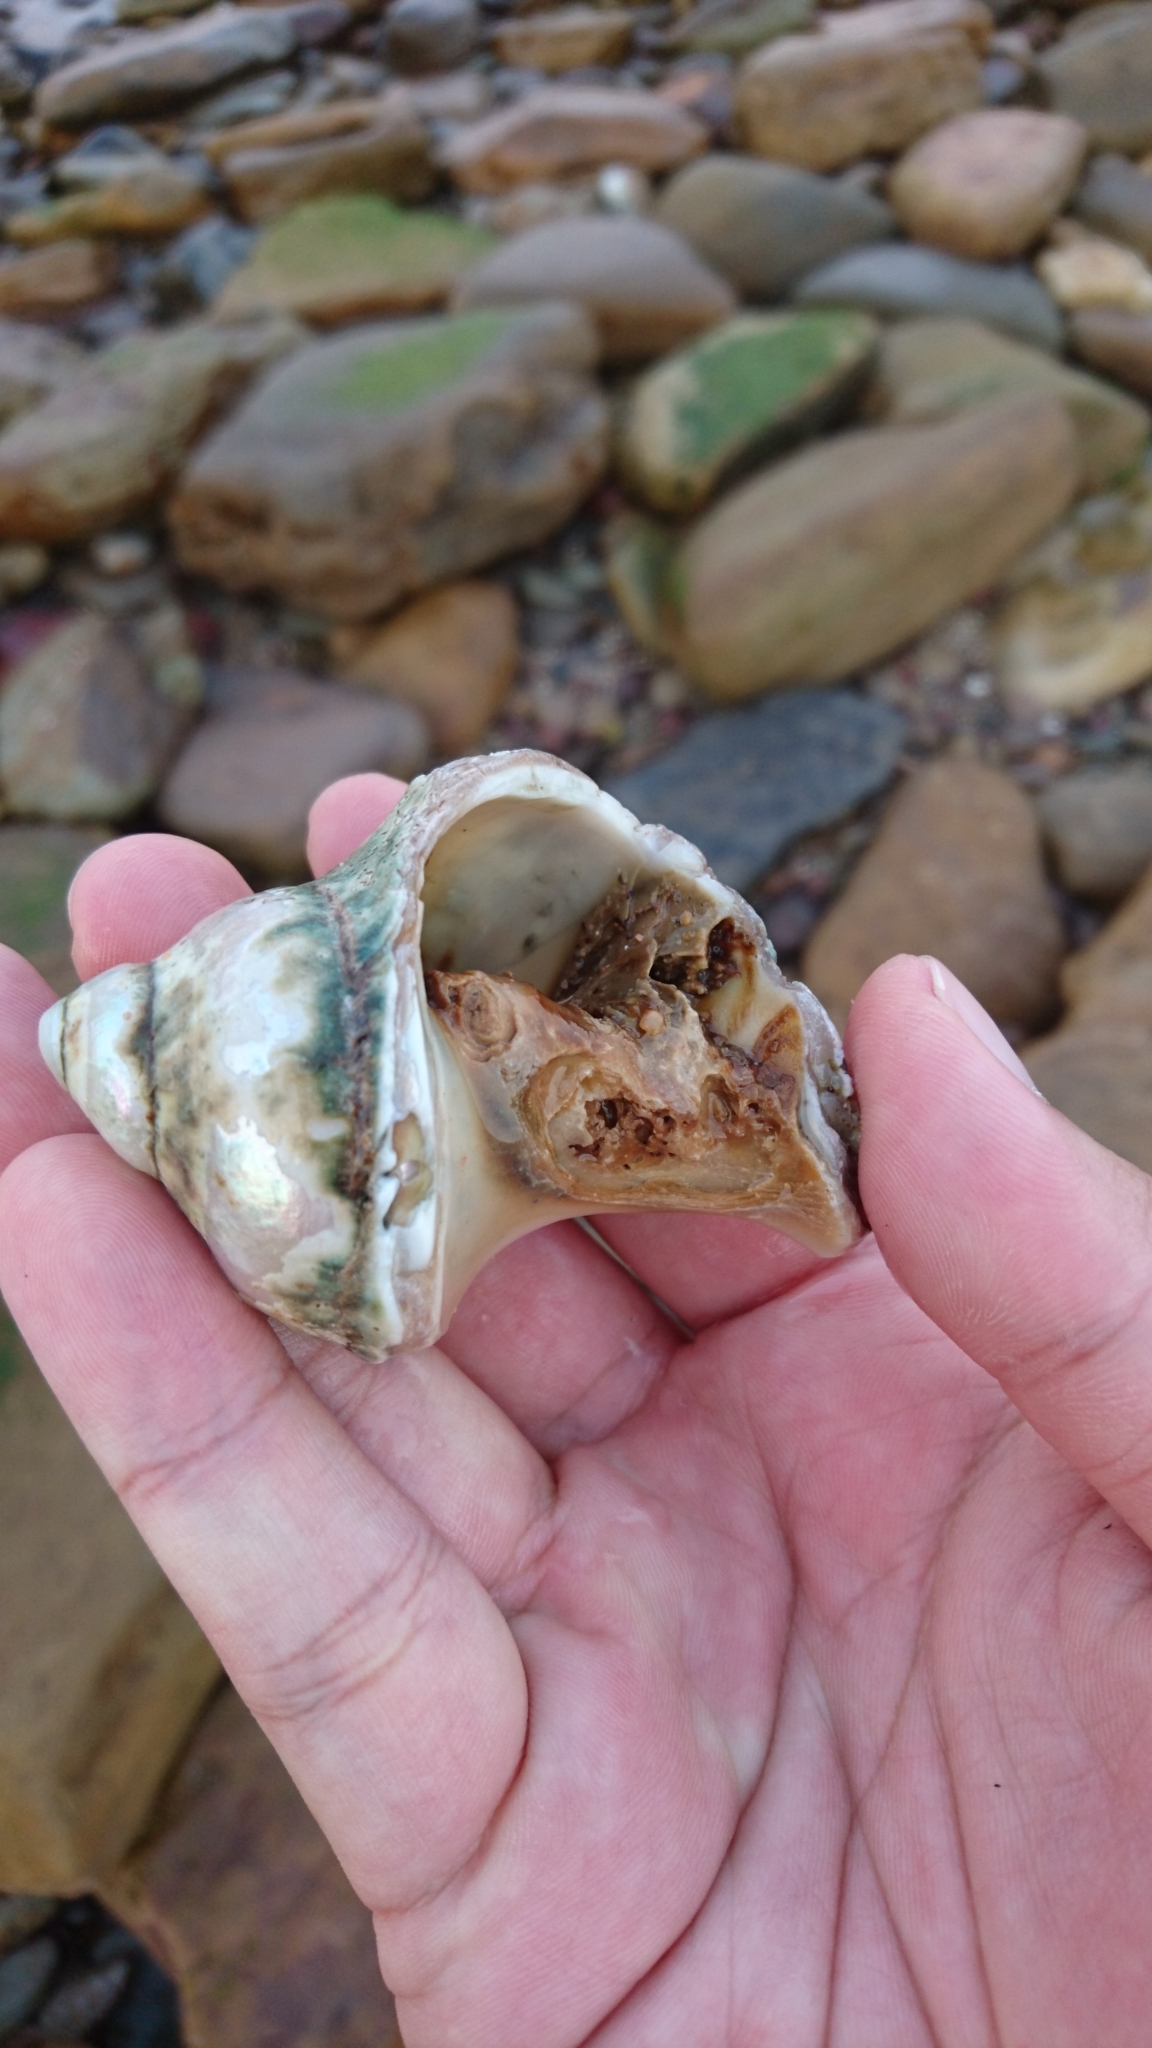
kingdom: Animalia
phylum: Mollusca
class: Gastropoda
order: Trochida
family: Turbinidae
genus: Turbo
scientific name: Turbo militaris
